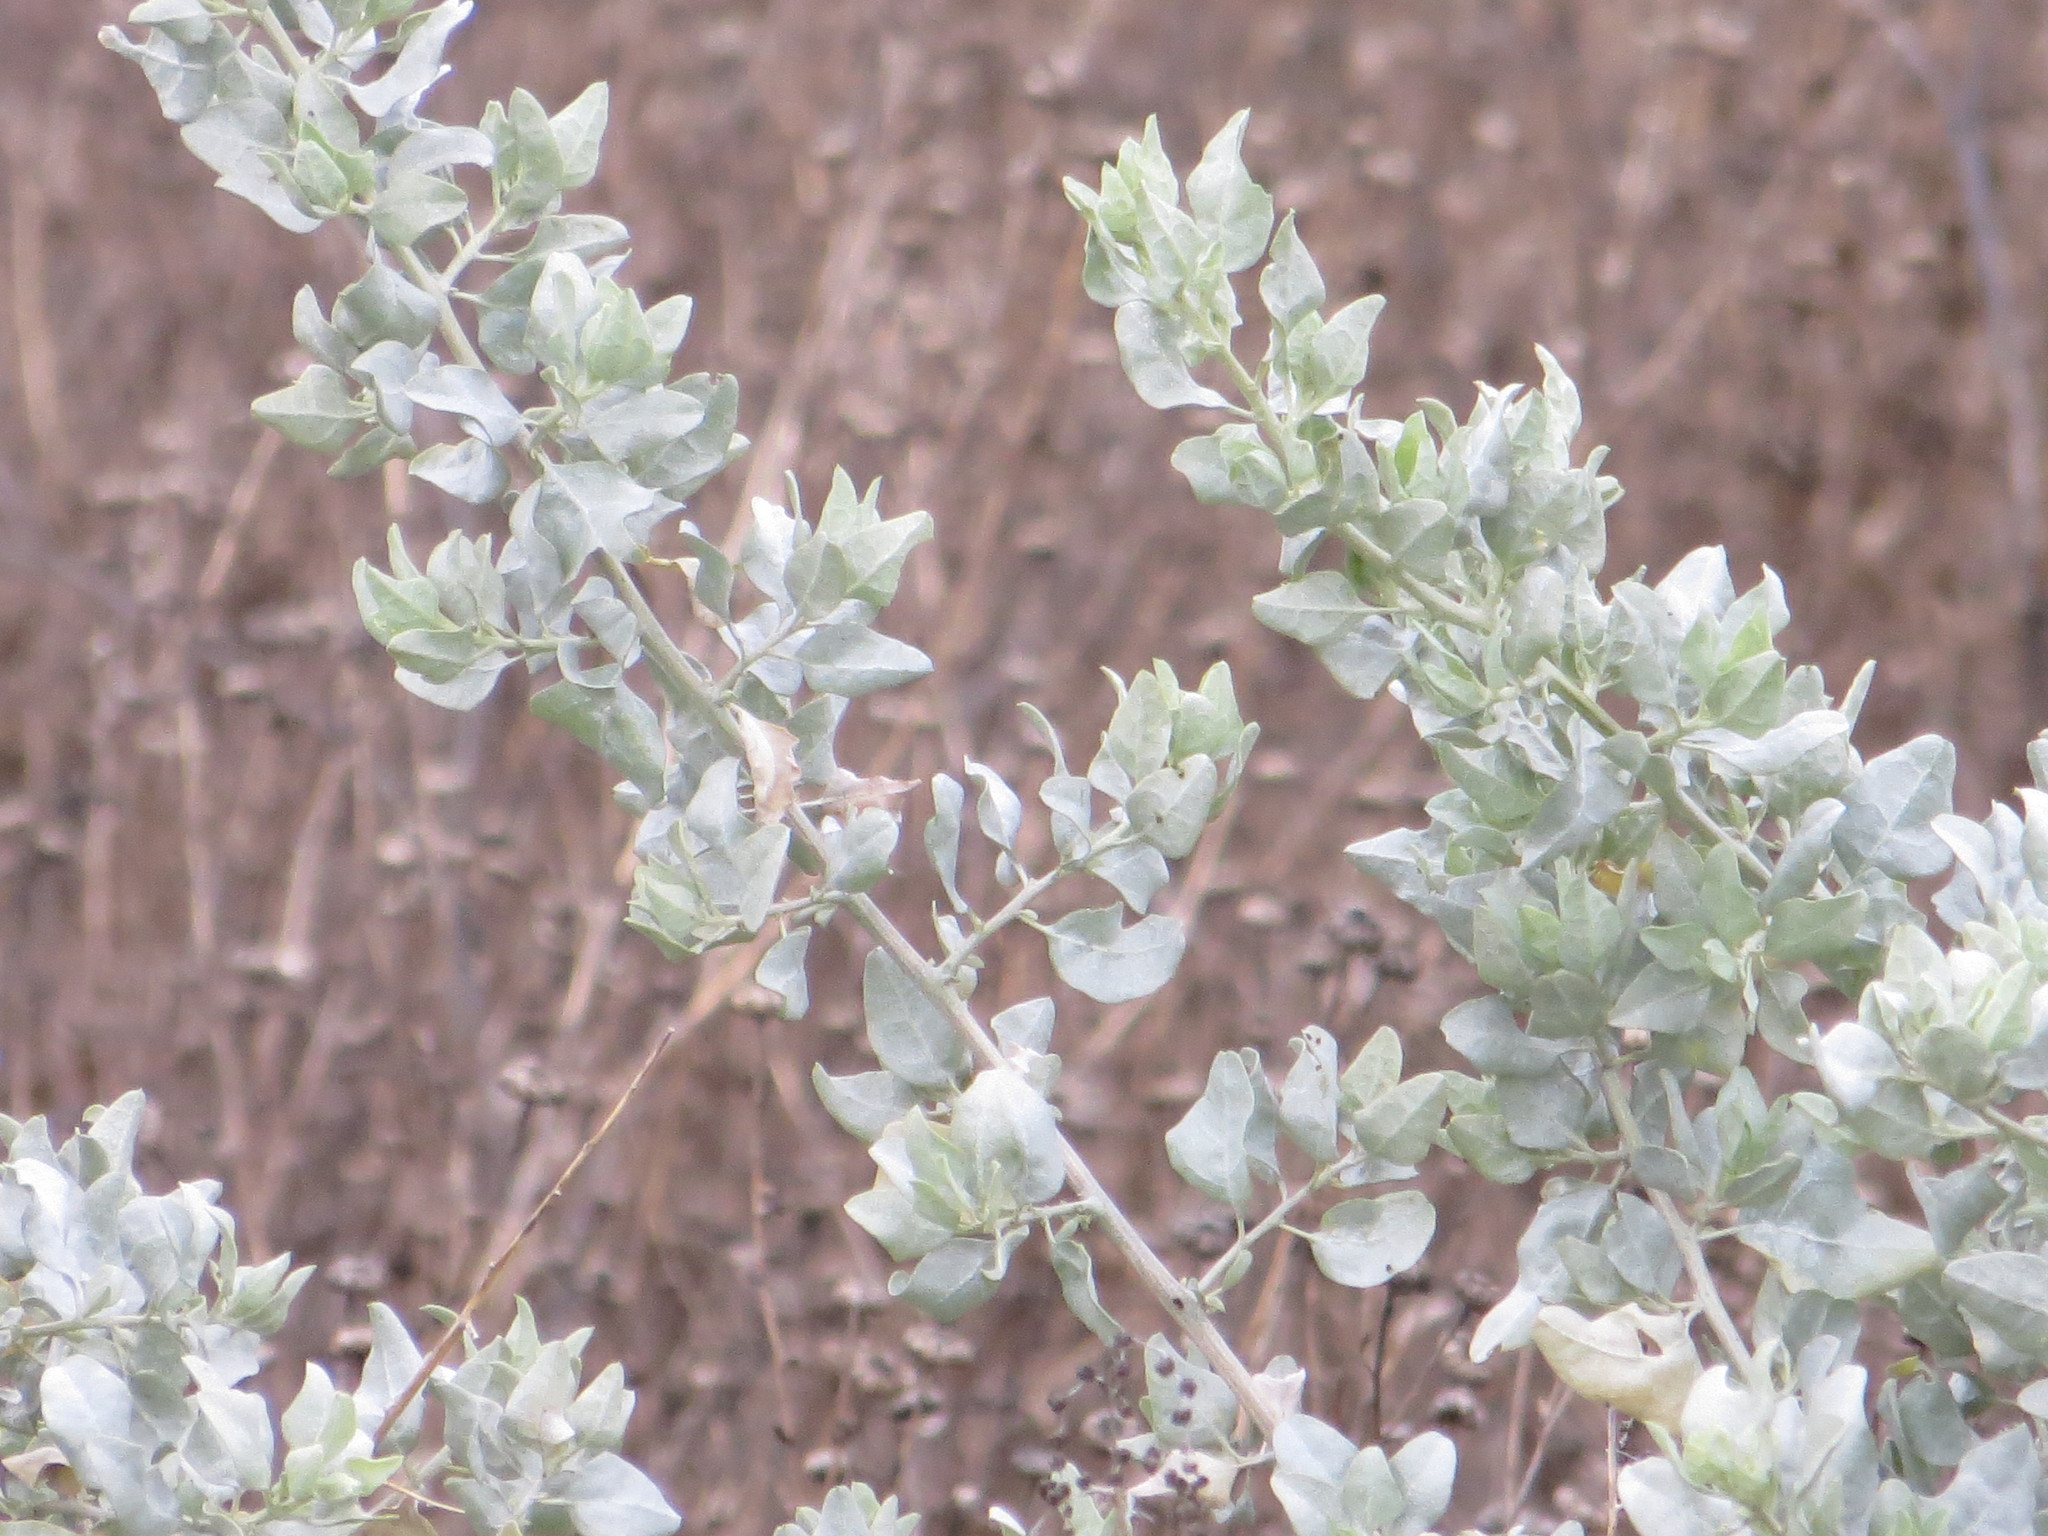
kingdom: Plantae
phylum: Tracheophyta
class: Magnoliopsida
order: Caryophyllales
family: Amaranthaceae
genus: Atriplex
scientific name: Atriplex lentiformis
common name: Big saltbush
